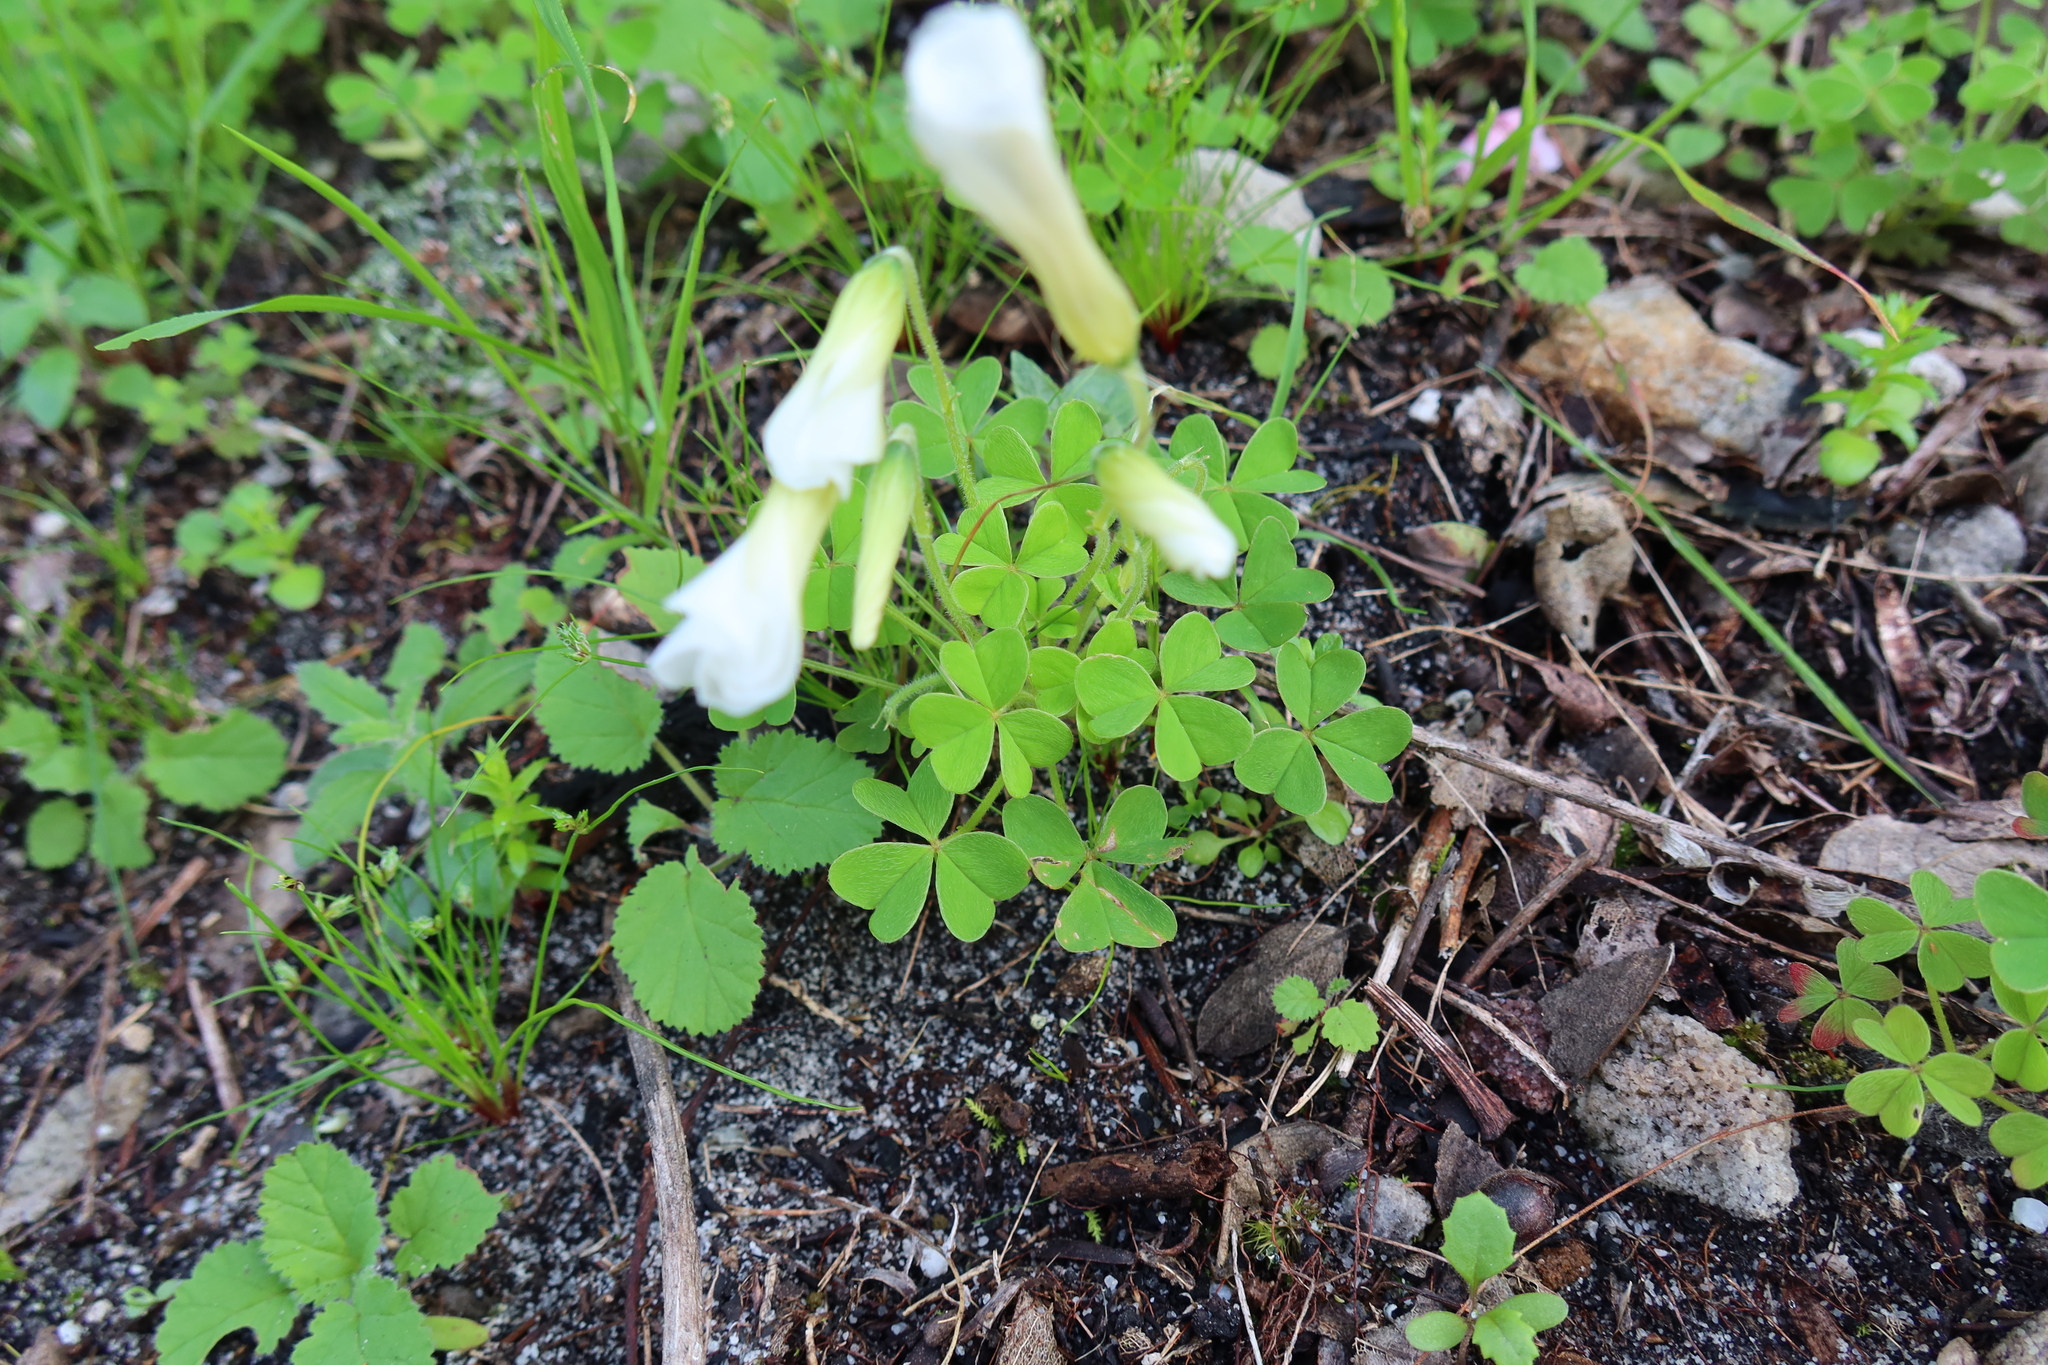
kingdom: Plantae
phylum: Tracheophyta
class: Magnoliopsida
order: Oxalidales
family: Oxalidaceae
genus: Oxalis
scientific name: Oxalis lanata
